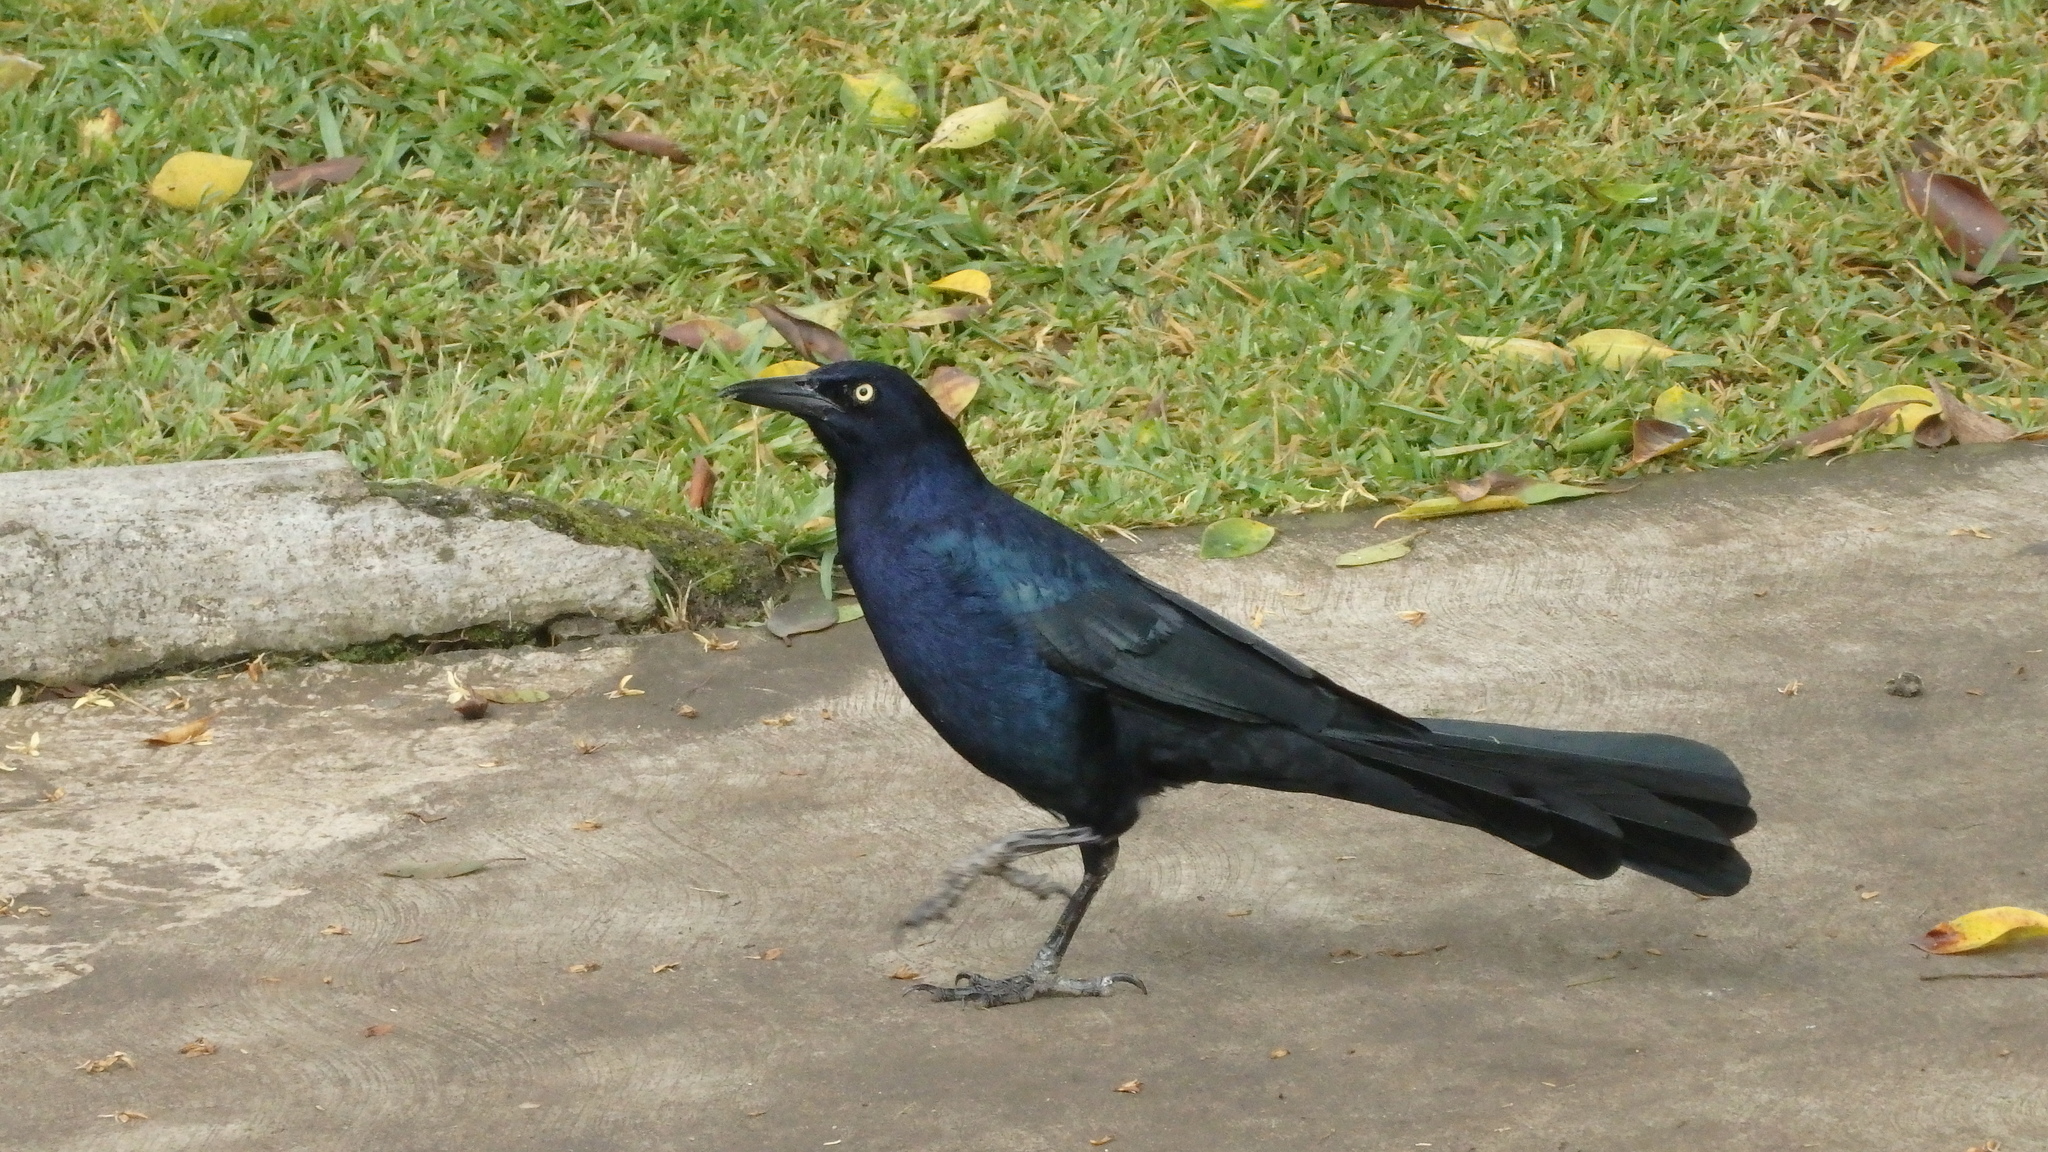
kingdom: Animalia
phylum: Chordata
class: Aves
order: Passeriformes
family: Icteridae
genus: Quiscalus
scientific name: Quiscalus mexicanus
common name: Great-tailed grackle
